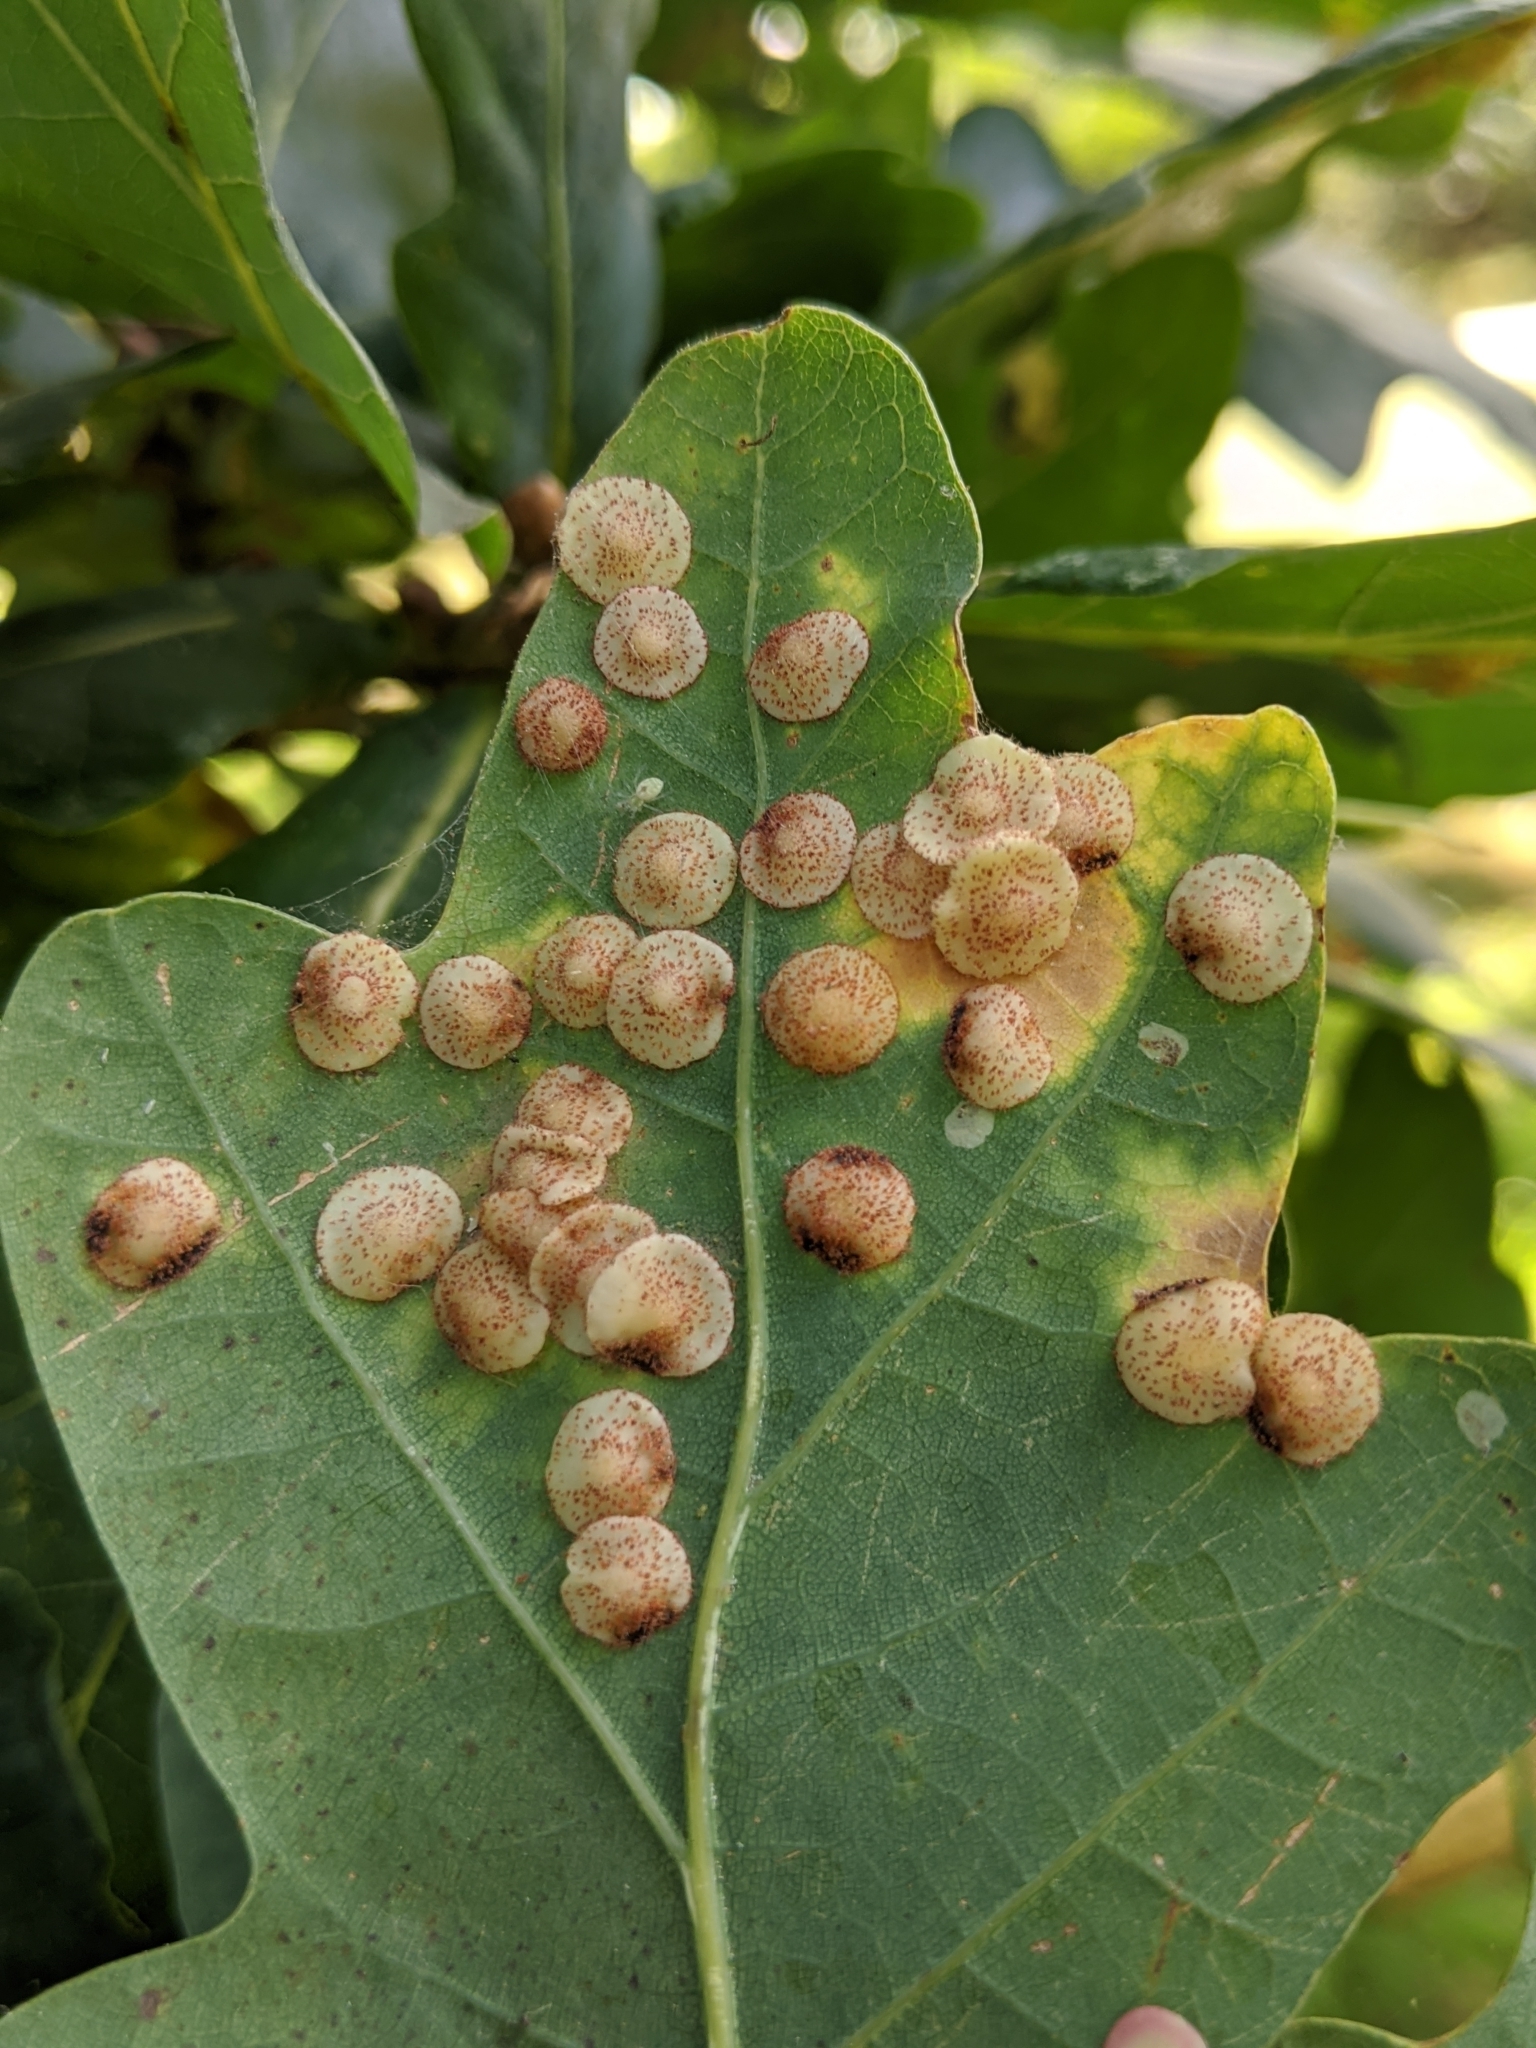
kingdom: Animalia
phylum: Arthropoda
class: Insecta
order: Hymenoptera
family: Cynipidae
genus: Neuroterus
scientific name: Neuroterus quercusbaccarum
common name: Common spangle gall
